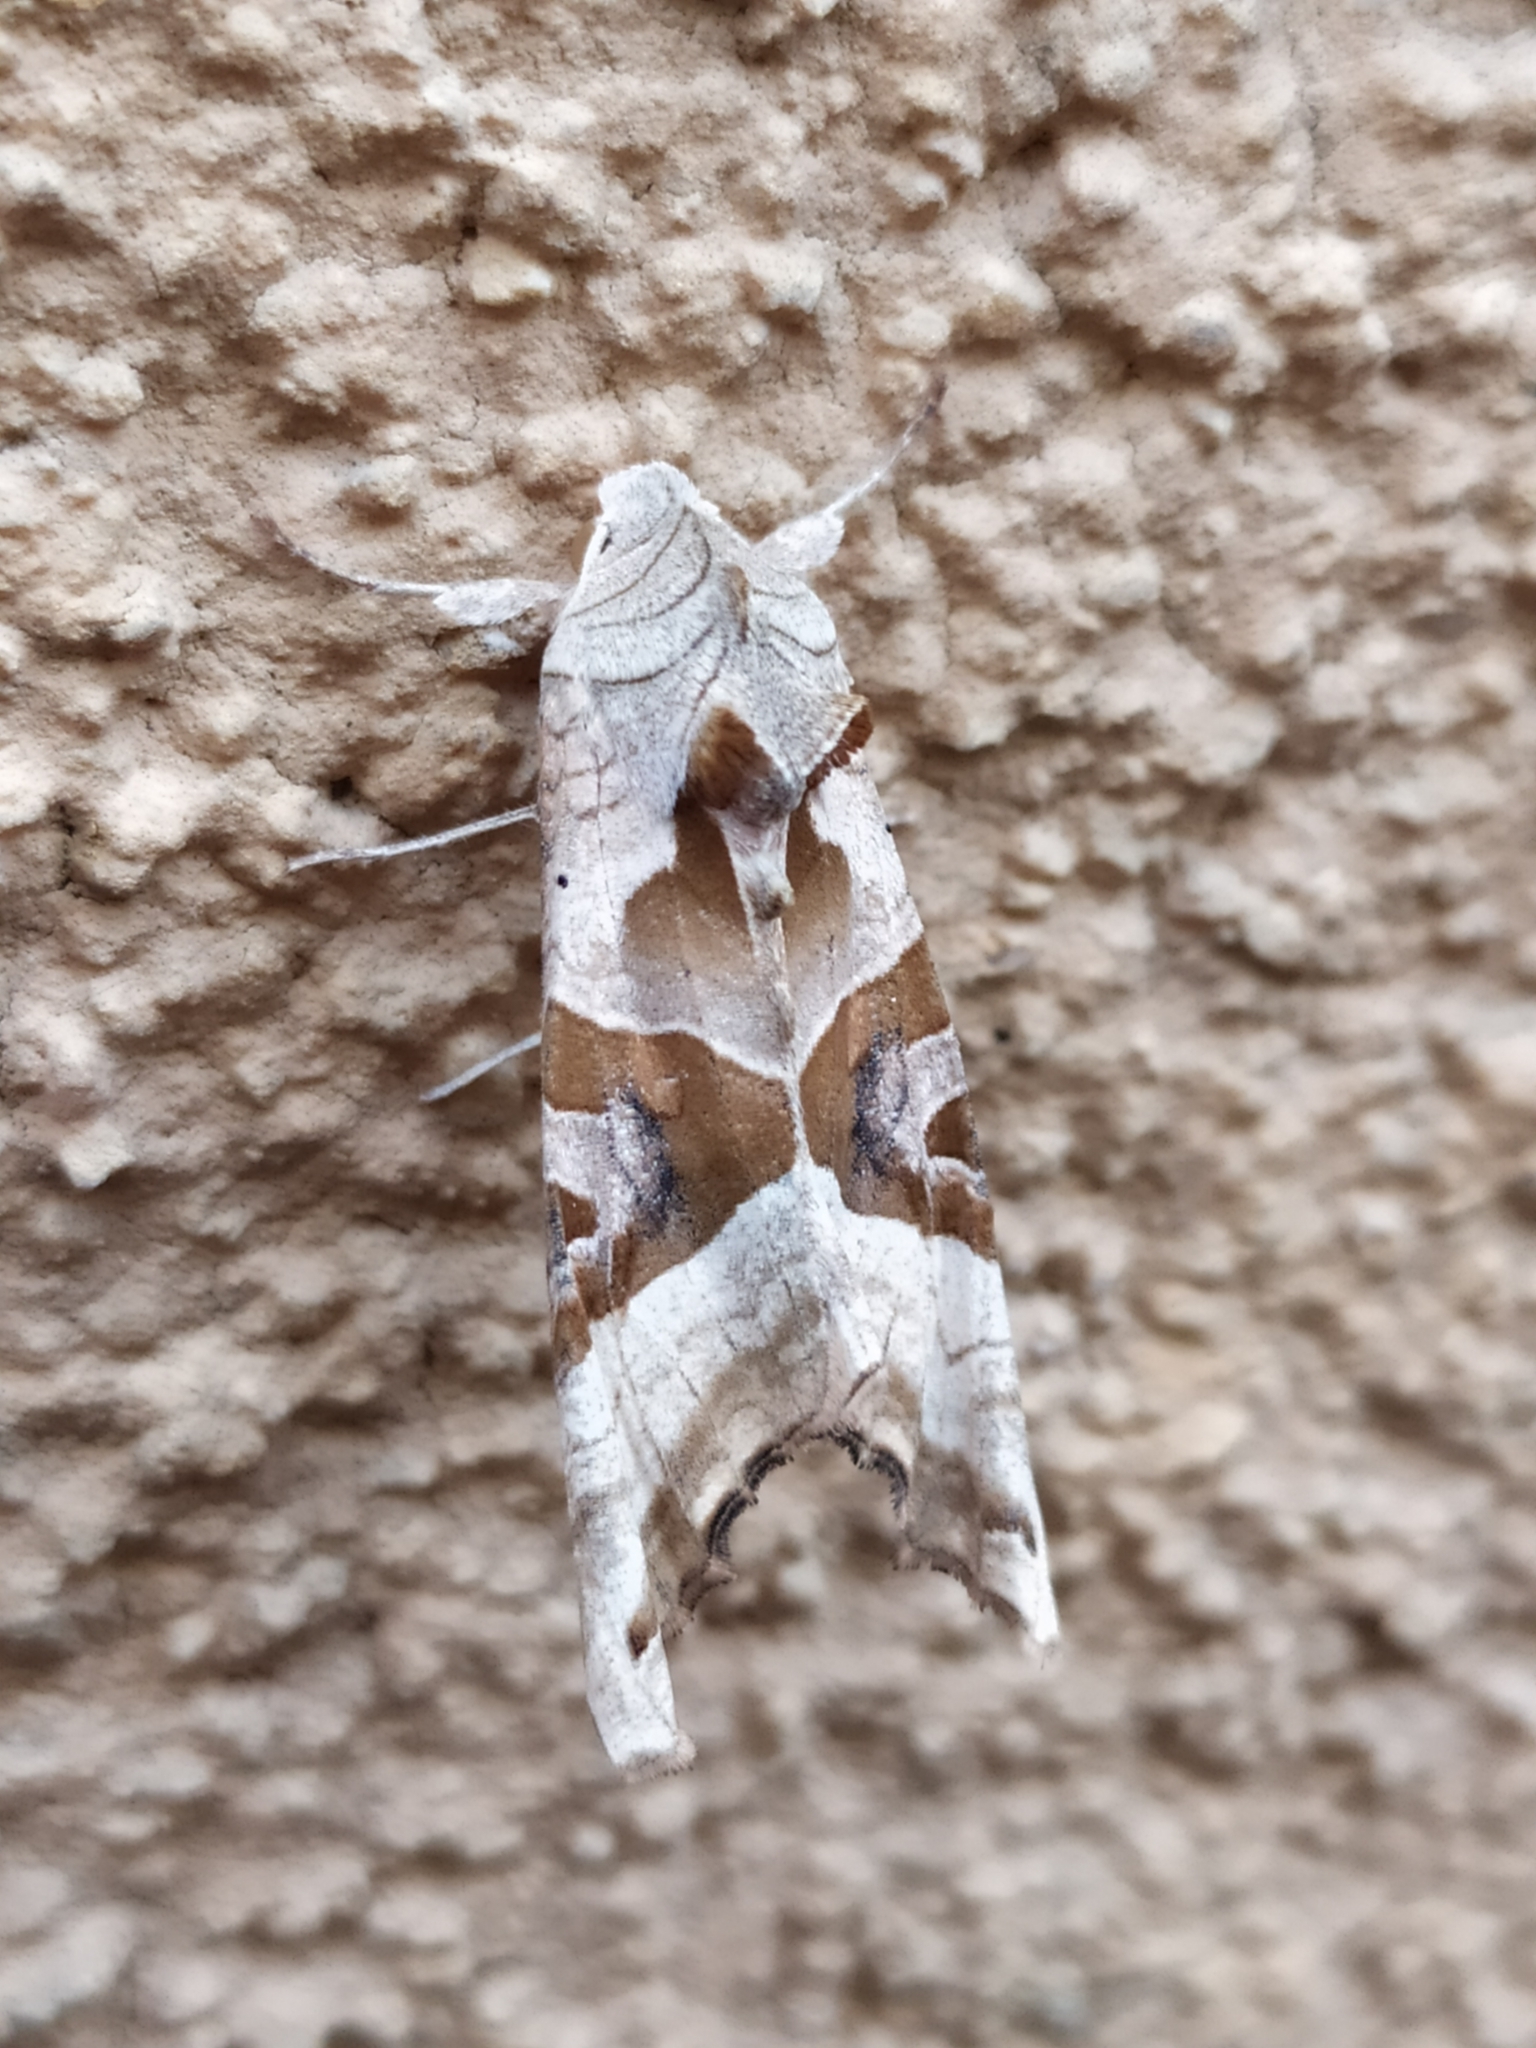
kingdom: Animalia
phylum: Arthropoda
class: Insecta
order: Lepidoptera
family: Noctuidae
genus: Phlogophora
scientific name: Phlogophora meticulosa
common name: Angle shades
